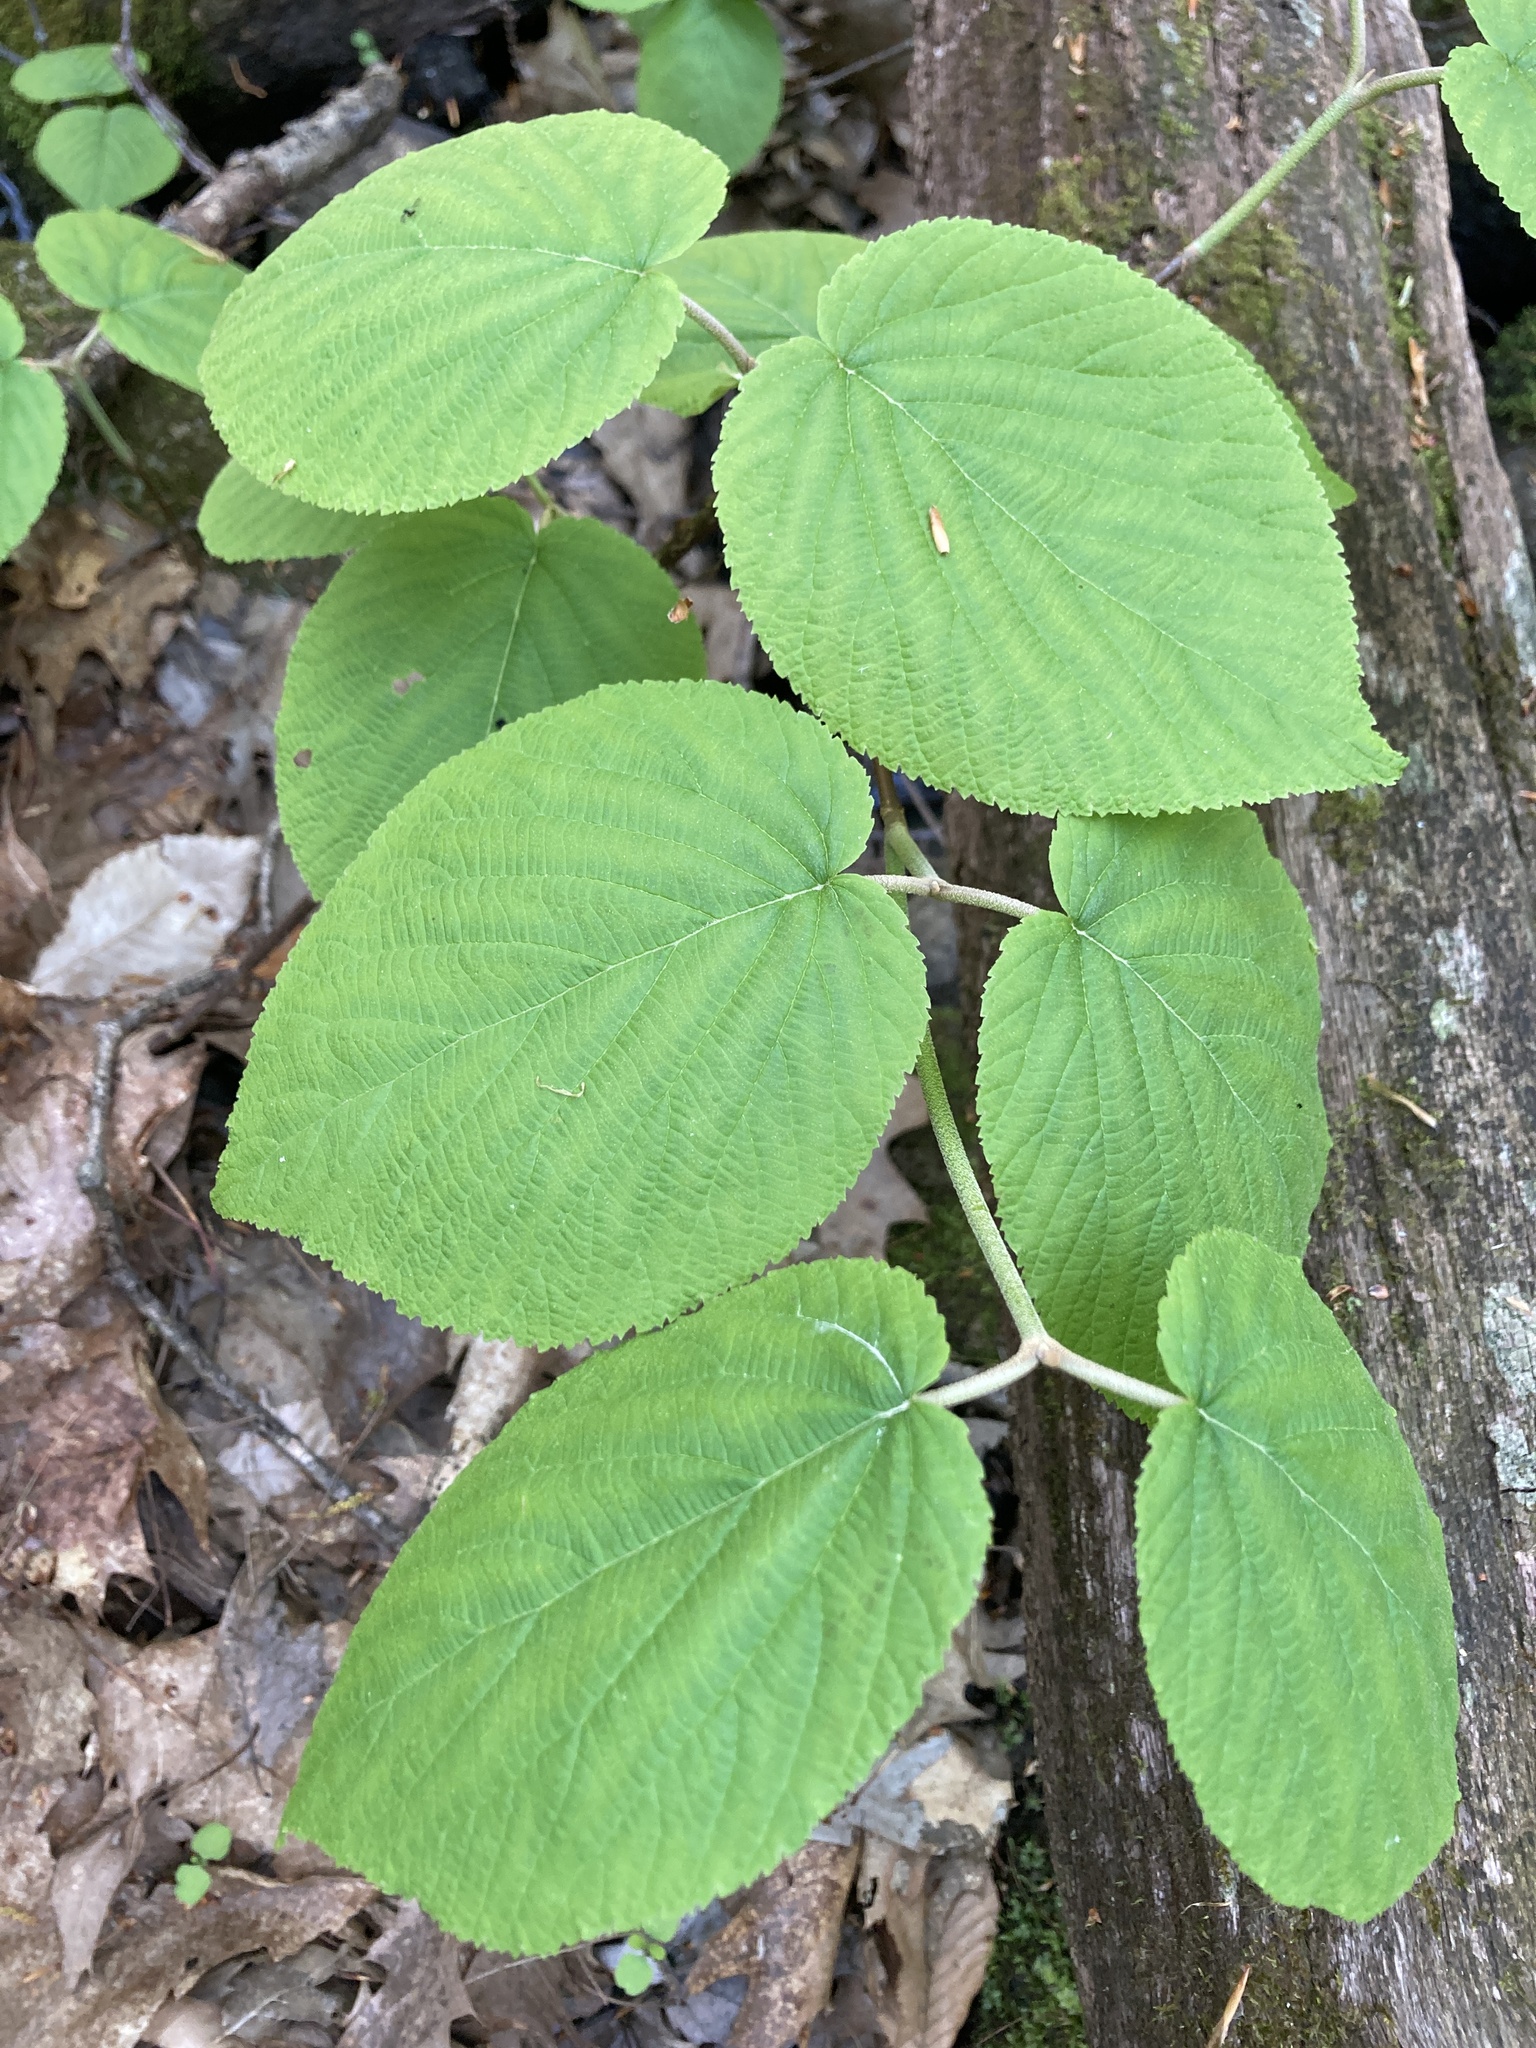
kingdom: Plantae
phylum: Tracheophyta
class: Magnoliopsida
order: Dipsacales
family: Viburnaceae
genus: Viburnum
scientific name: Viburnum lantanoides
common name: Hobblebush
